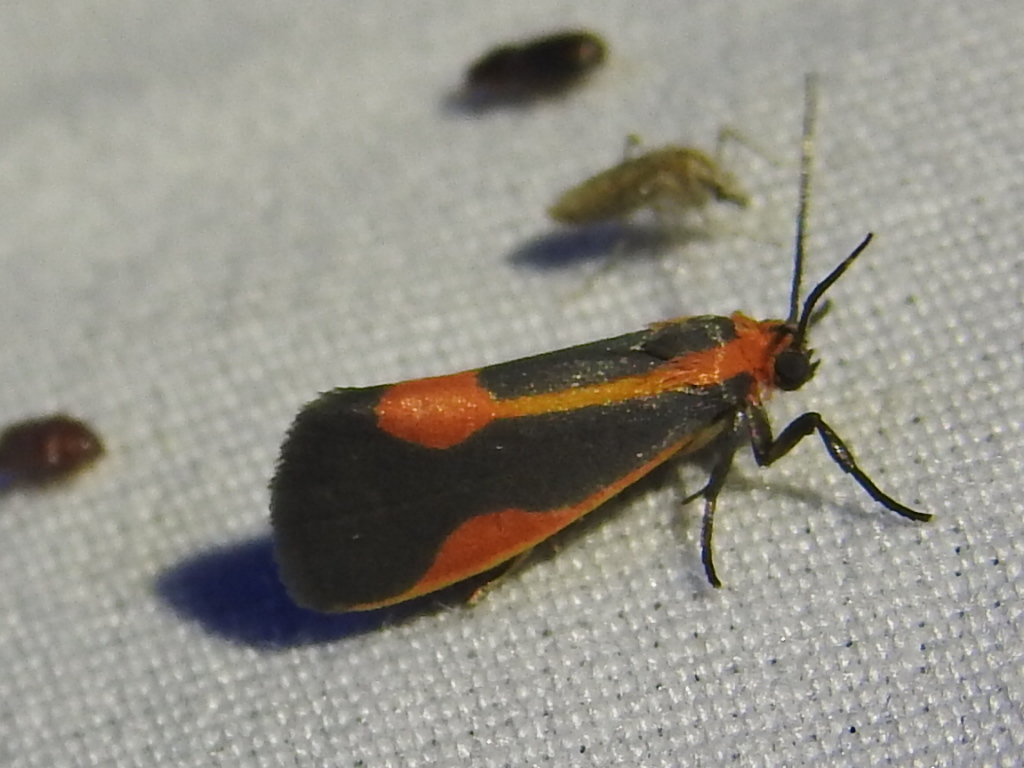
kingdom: Animalia
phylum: Arthropoda
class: Insecta
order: Lepidoptera
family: Erebidae
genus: Cisthene
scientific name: Cisthene packardii
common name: Packard's lichen moth
